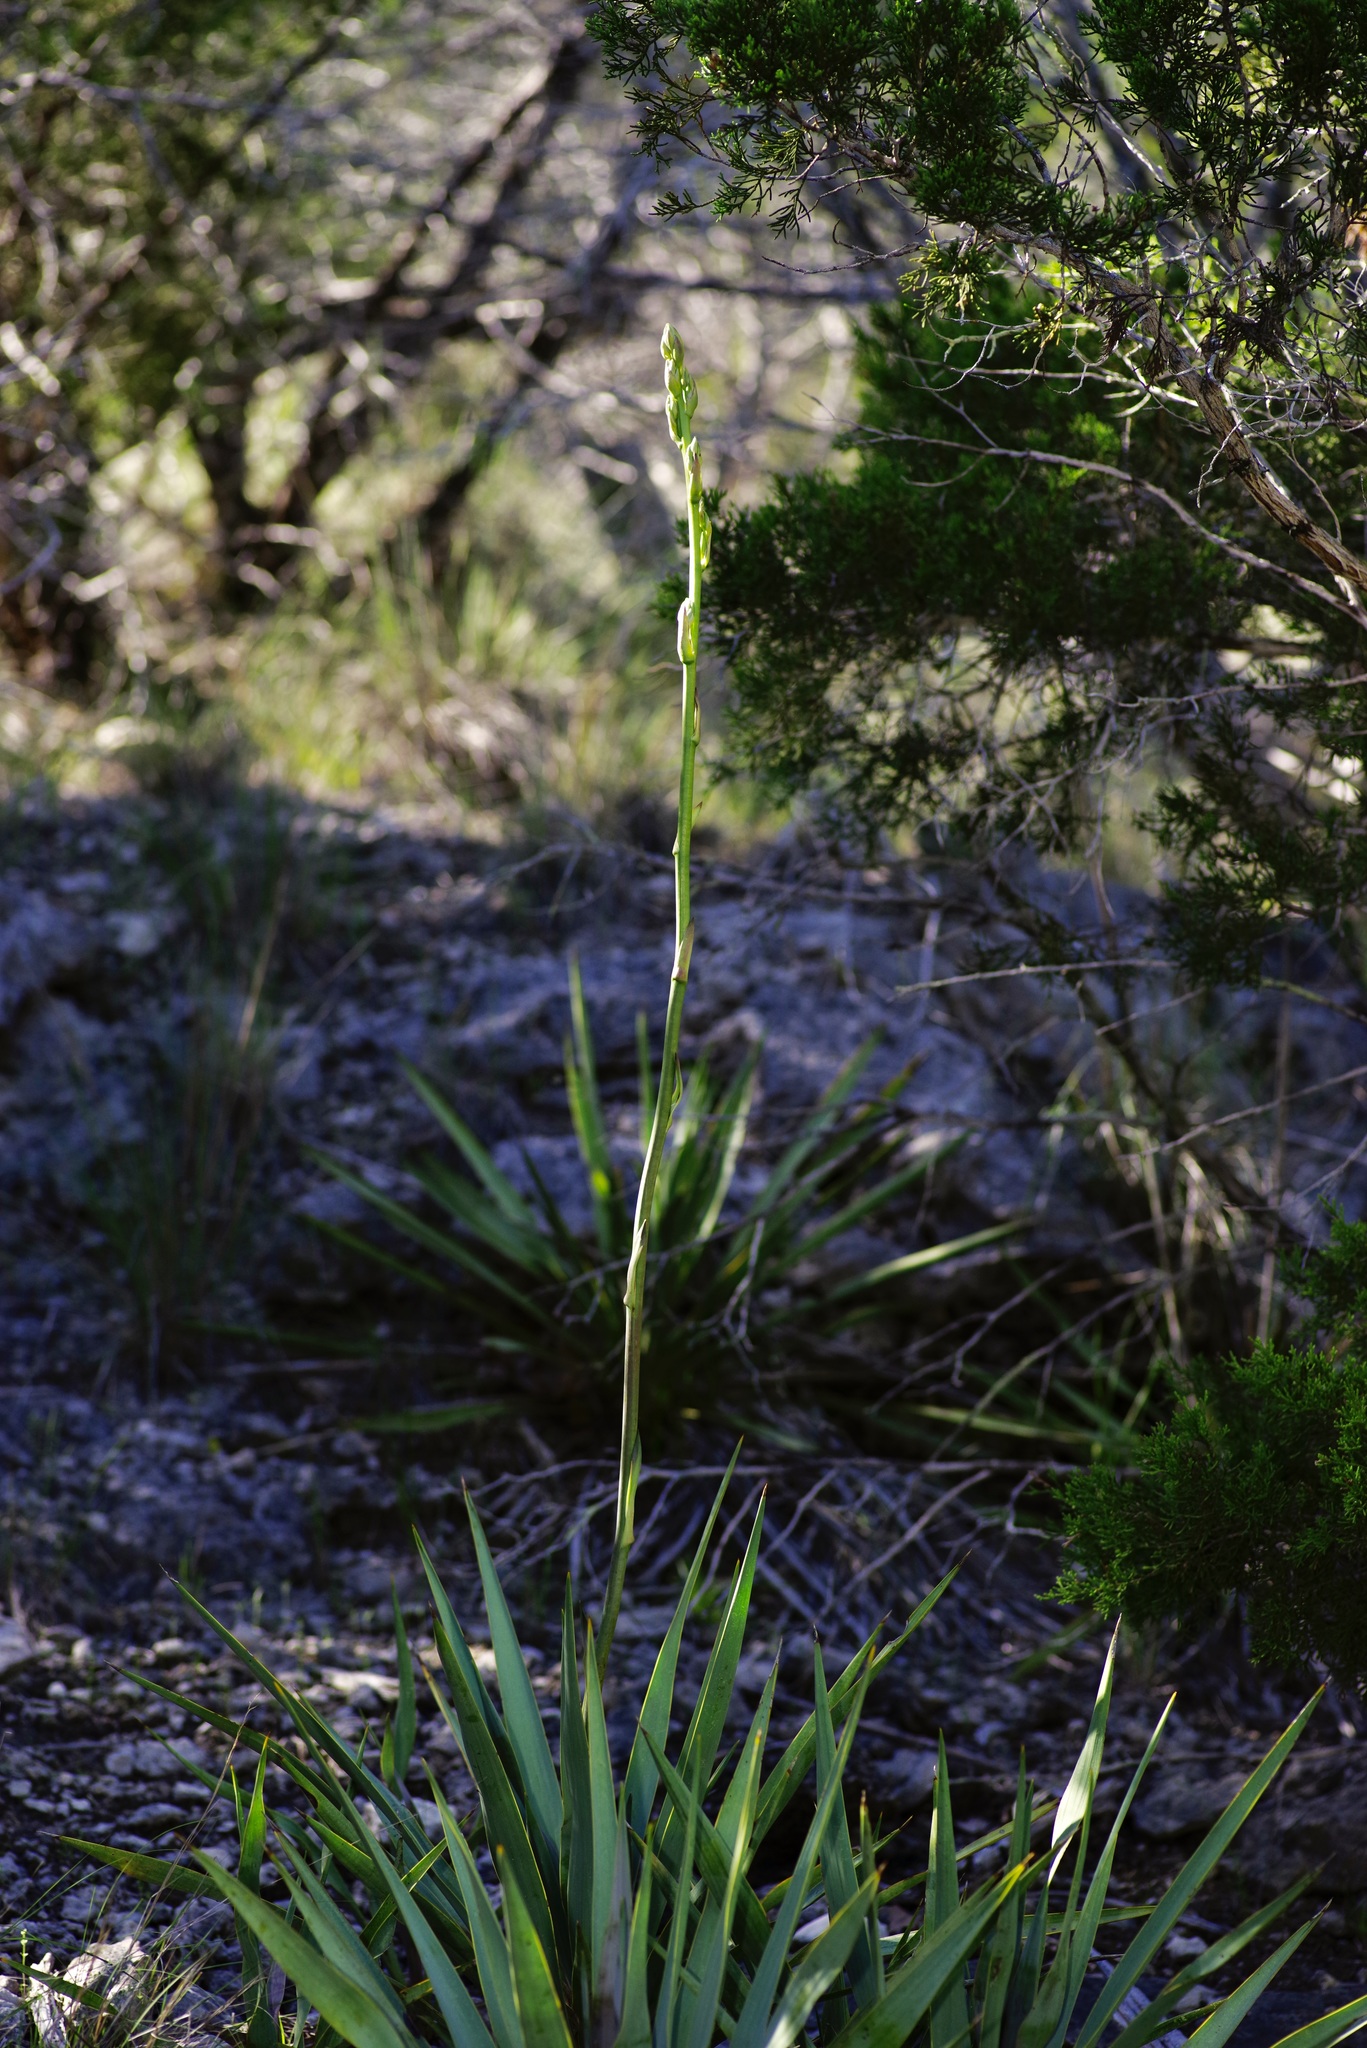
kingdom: Plantae
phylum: Tracheophyta
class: Liliopsida
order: Asparagales
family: Asparagaceae
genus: Yucca
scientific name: Yucca rupicola
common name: Twisted-leaf spanish-dagger
